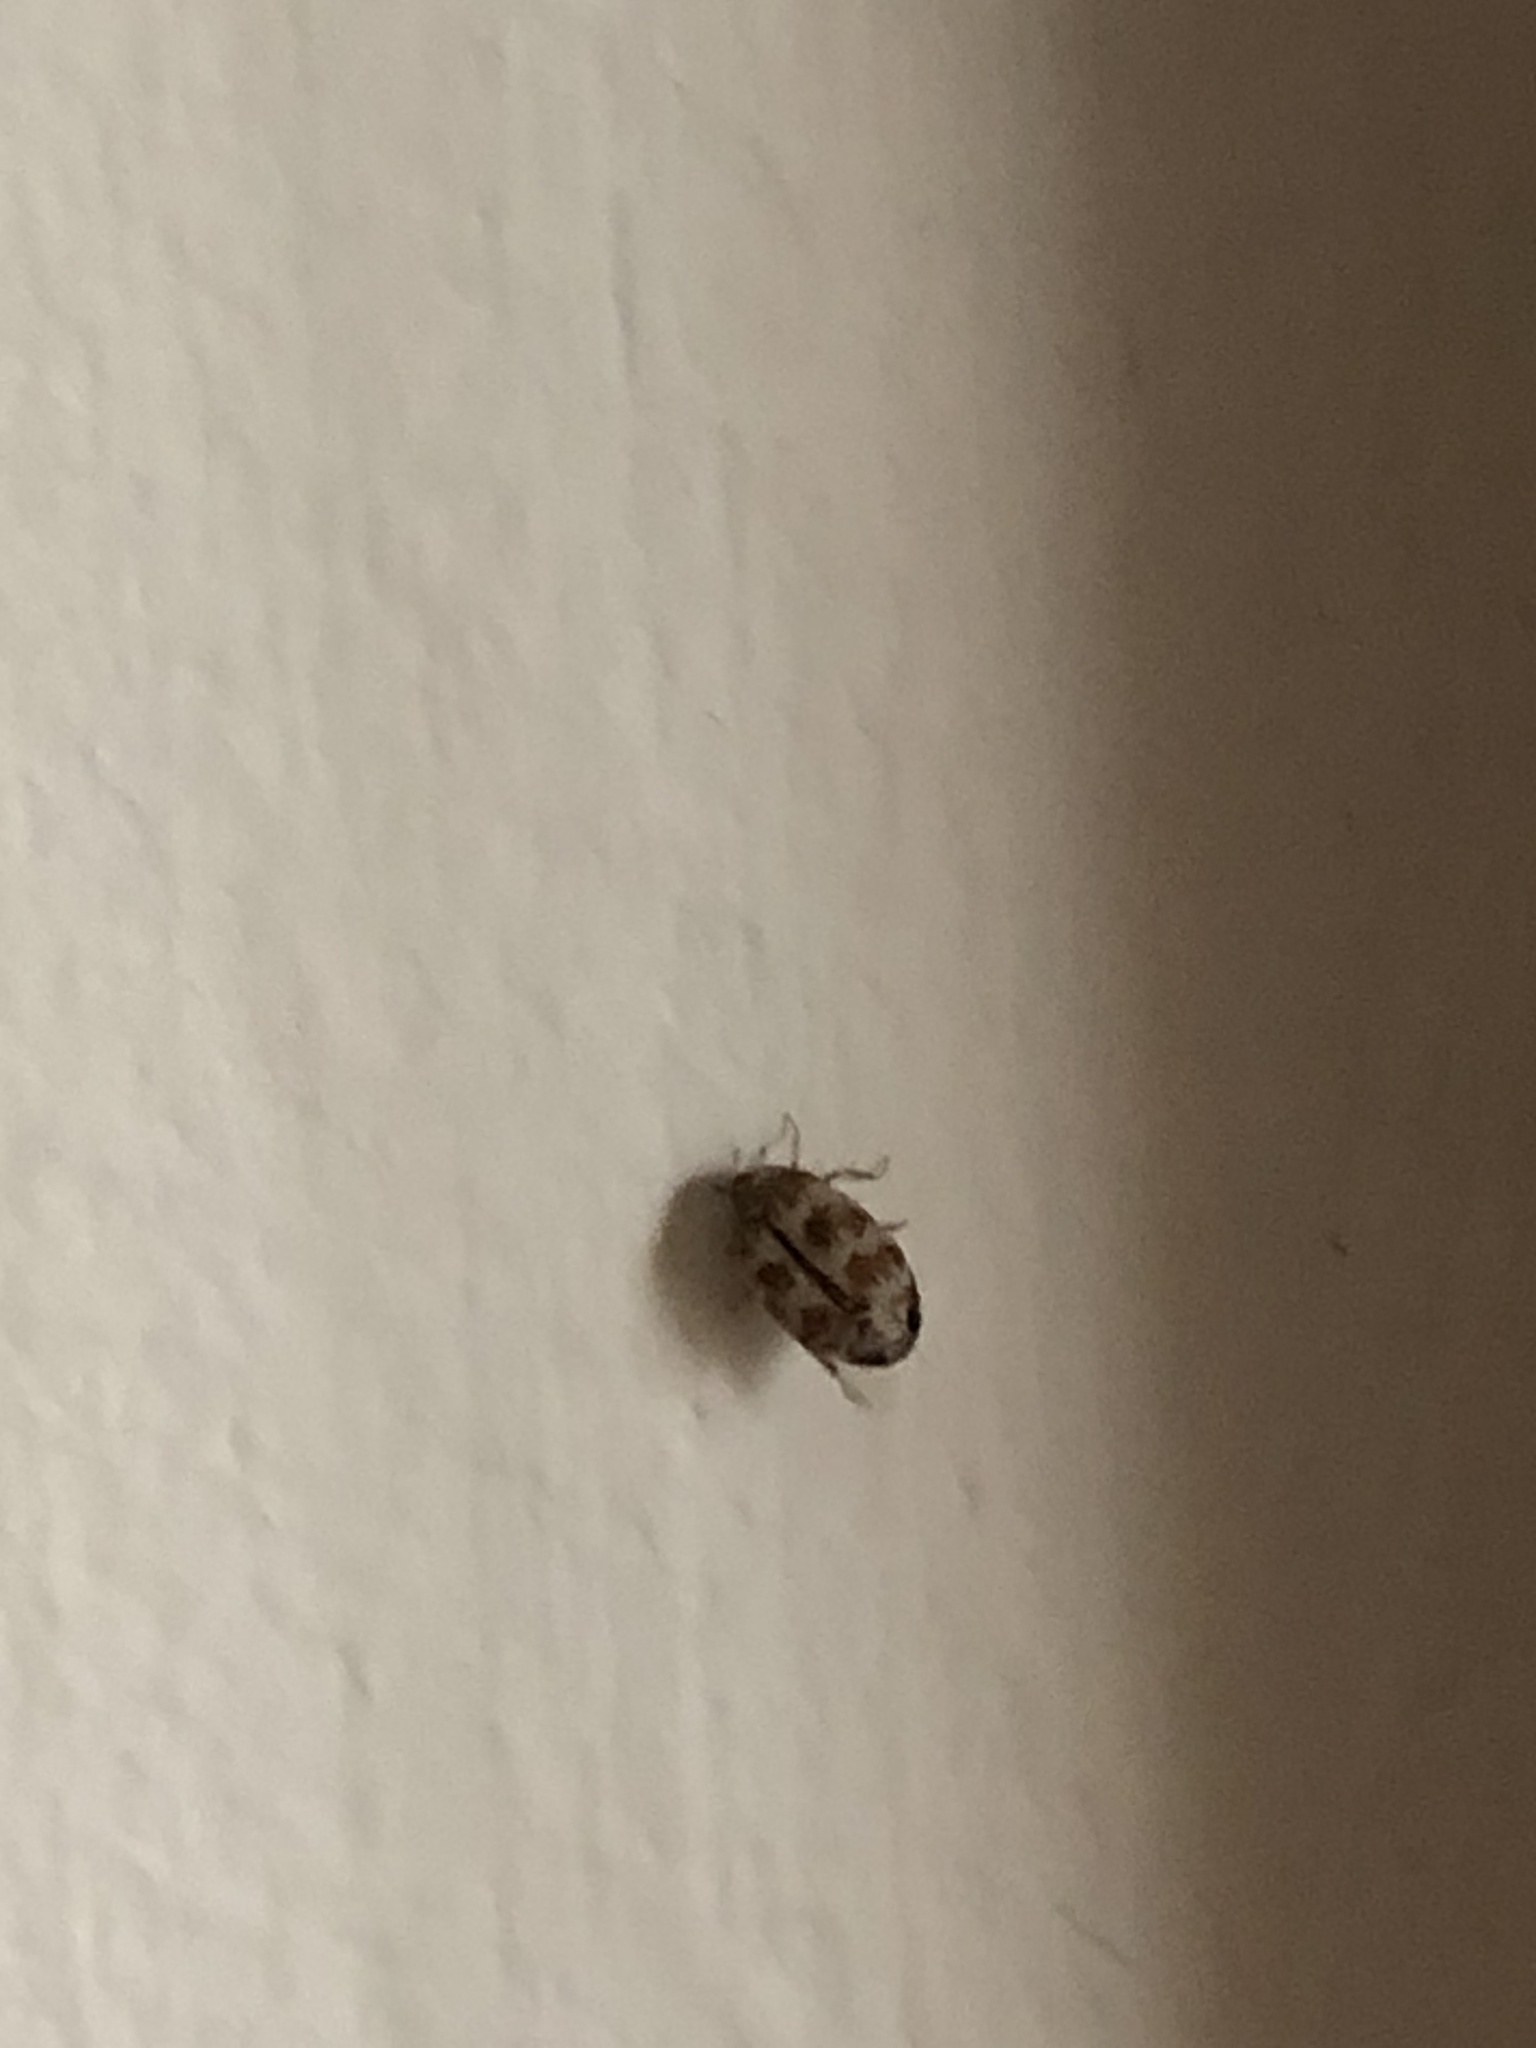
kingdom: Animalia
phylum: Arthropoda
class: Insecta
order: Coleoptera
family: Dermestidae
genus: Anthrenus
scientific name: Anthrenus coloratus
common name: Auger beetle
